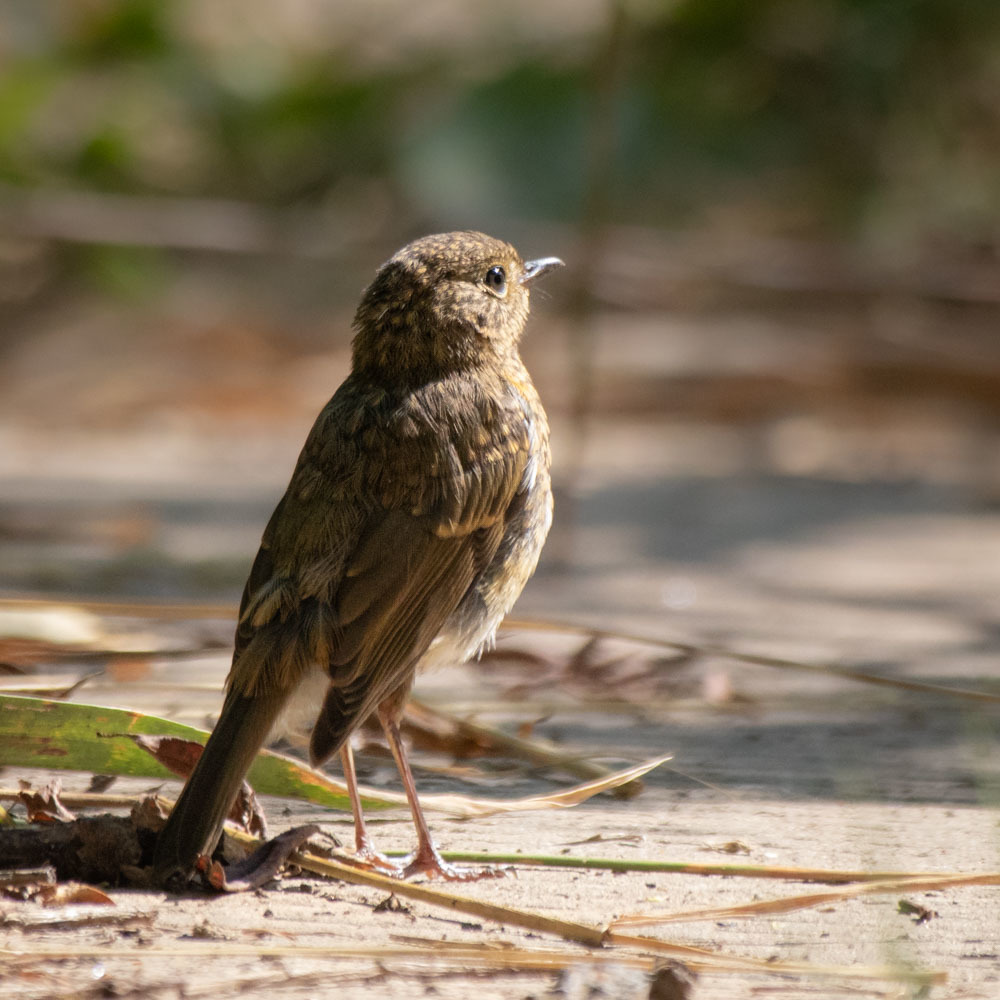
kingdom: Animalia
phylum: Chordata
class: Aves
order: Passeriformes
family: Muscicapidae
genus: Erithacus
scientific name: Erithacus rubecula
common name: European robin
